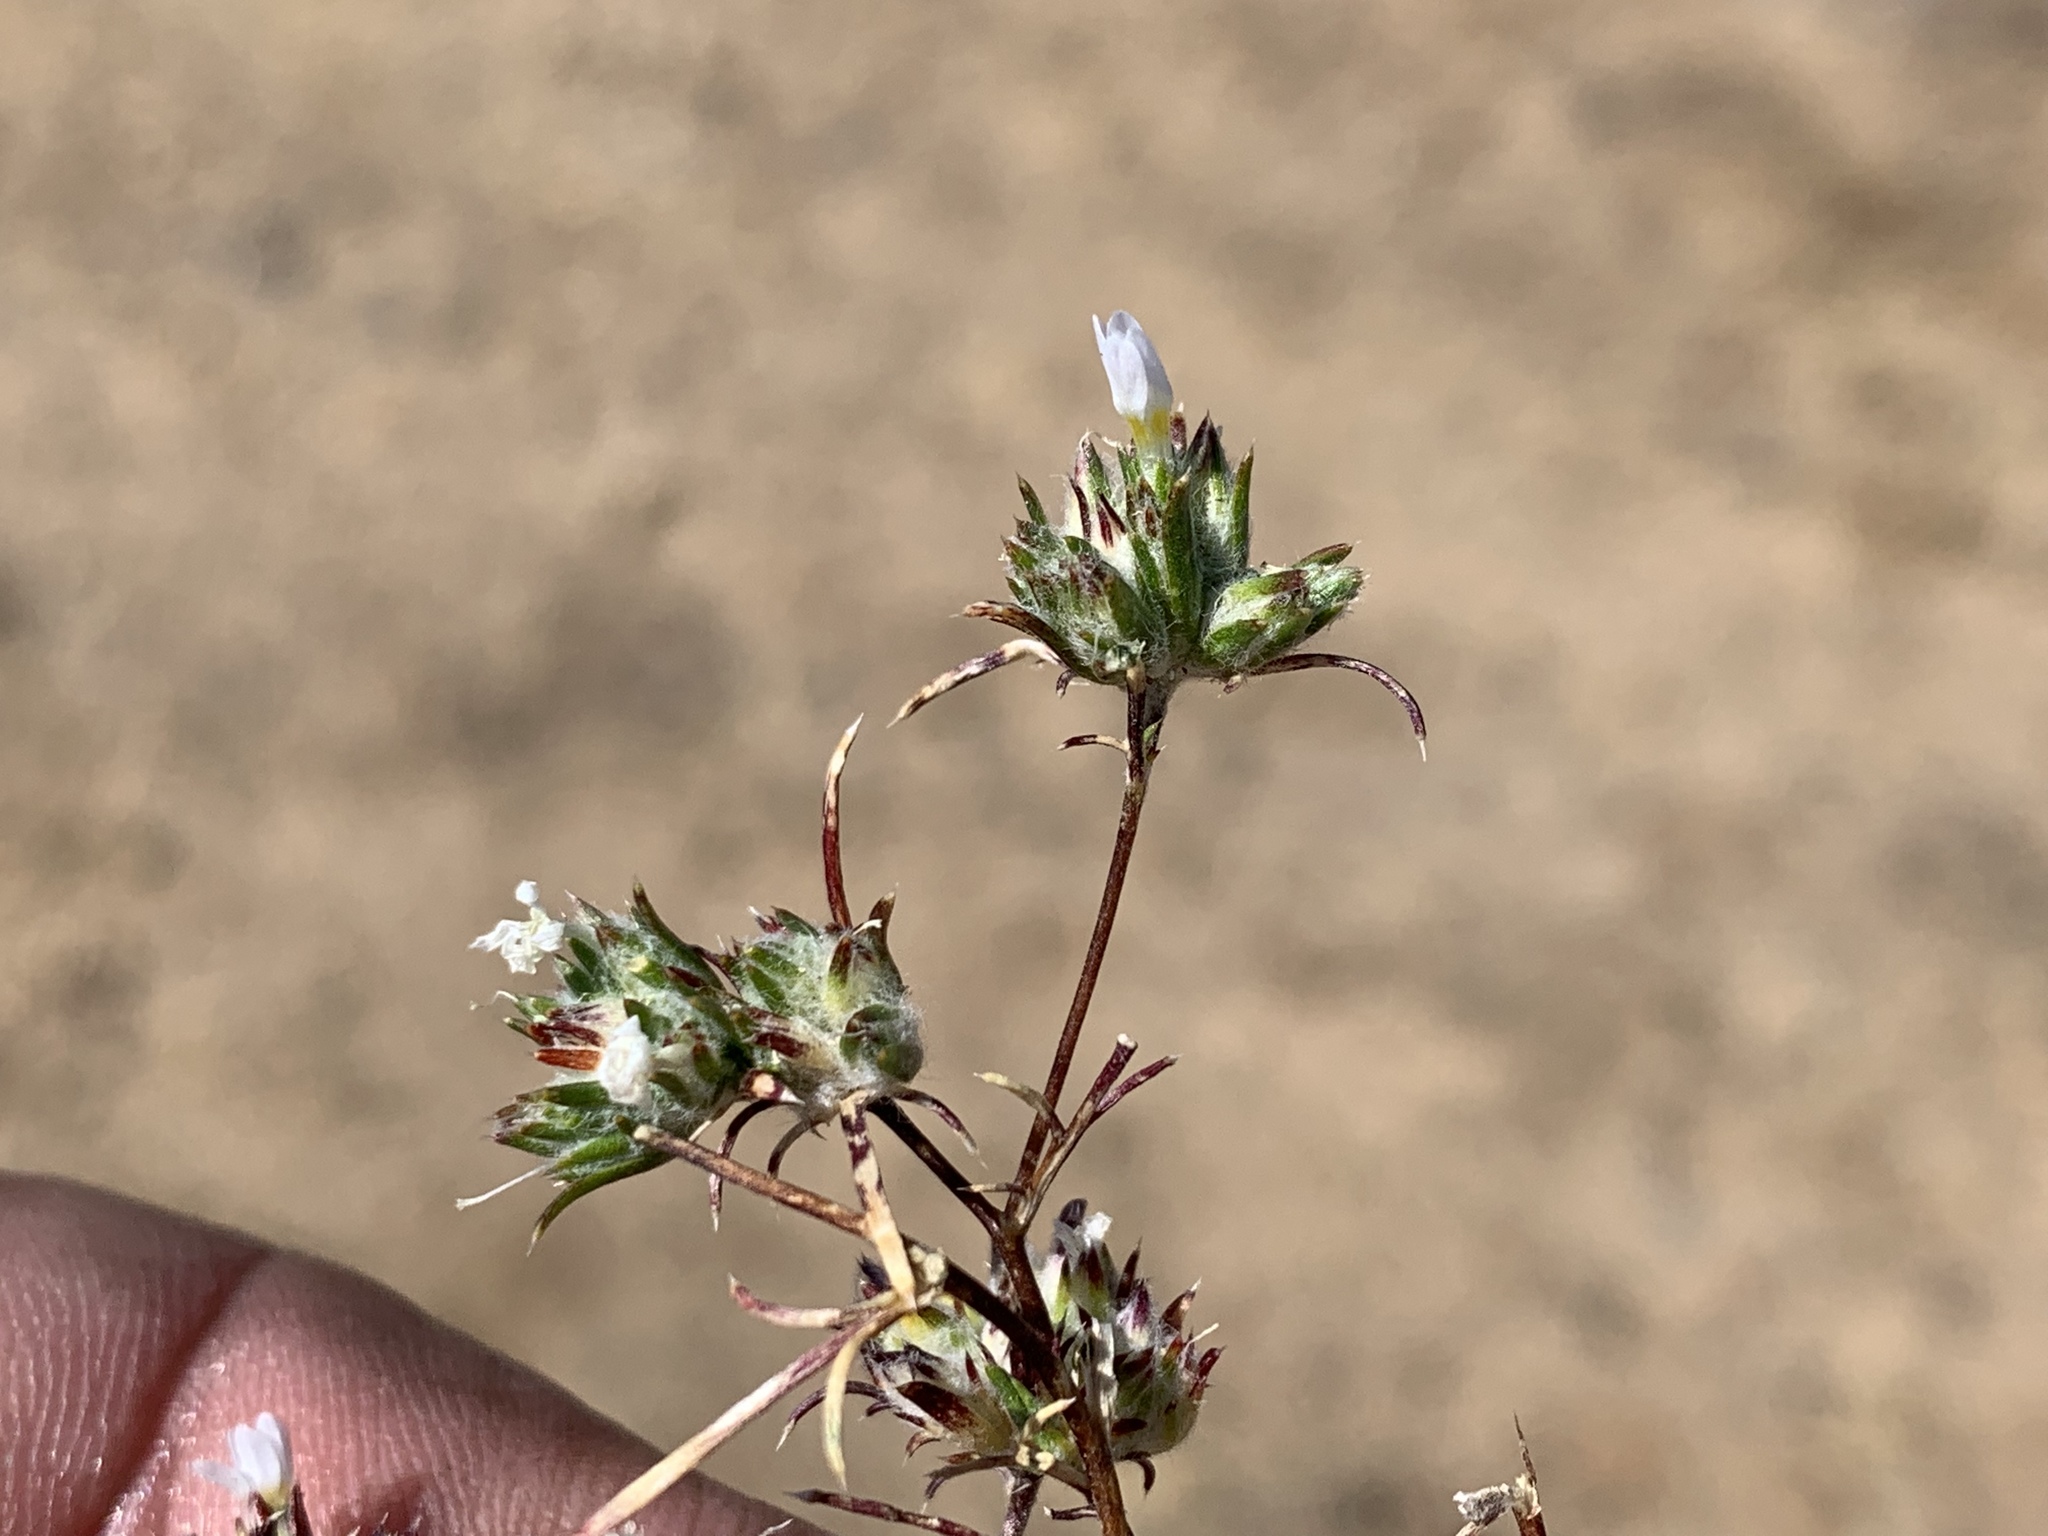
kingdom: Plantae
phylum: Tracheophyta
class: Magnoliopsida
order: Ericales
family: Polemoniaceae
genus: Eriastrum
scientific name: Eriastrum diffusum
